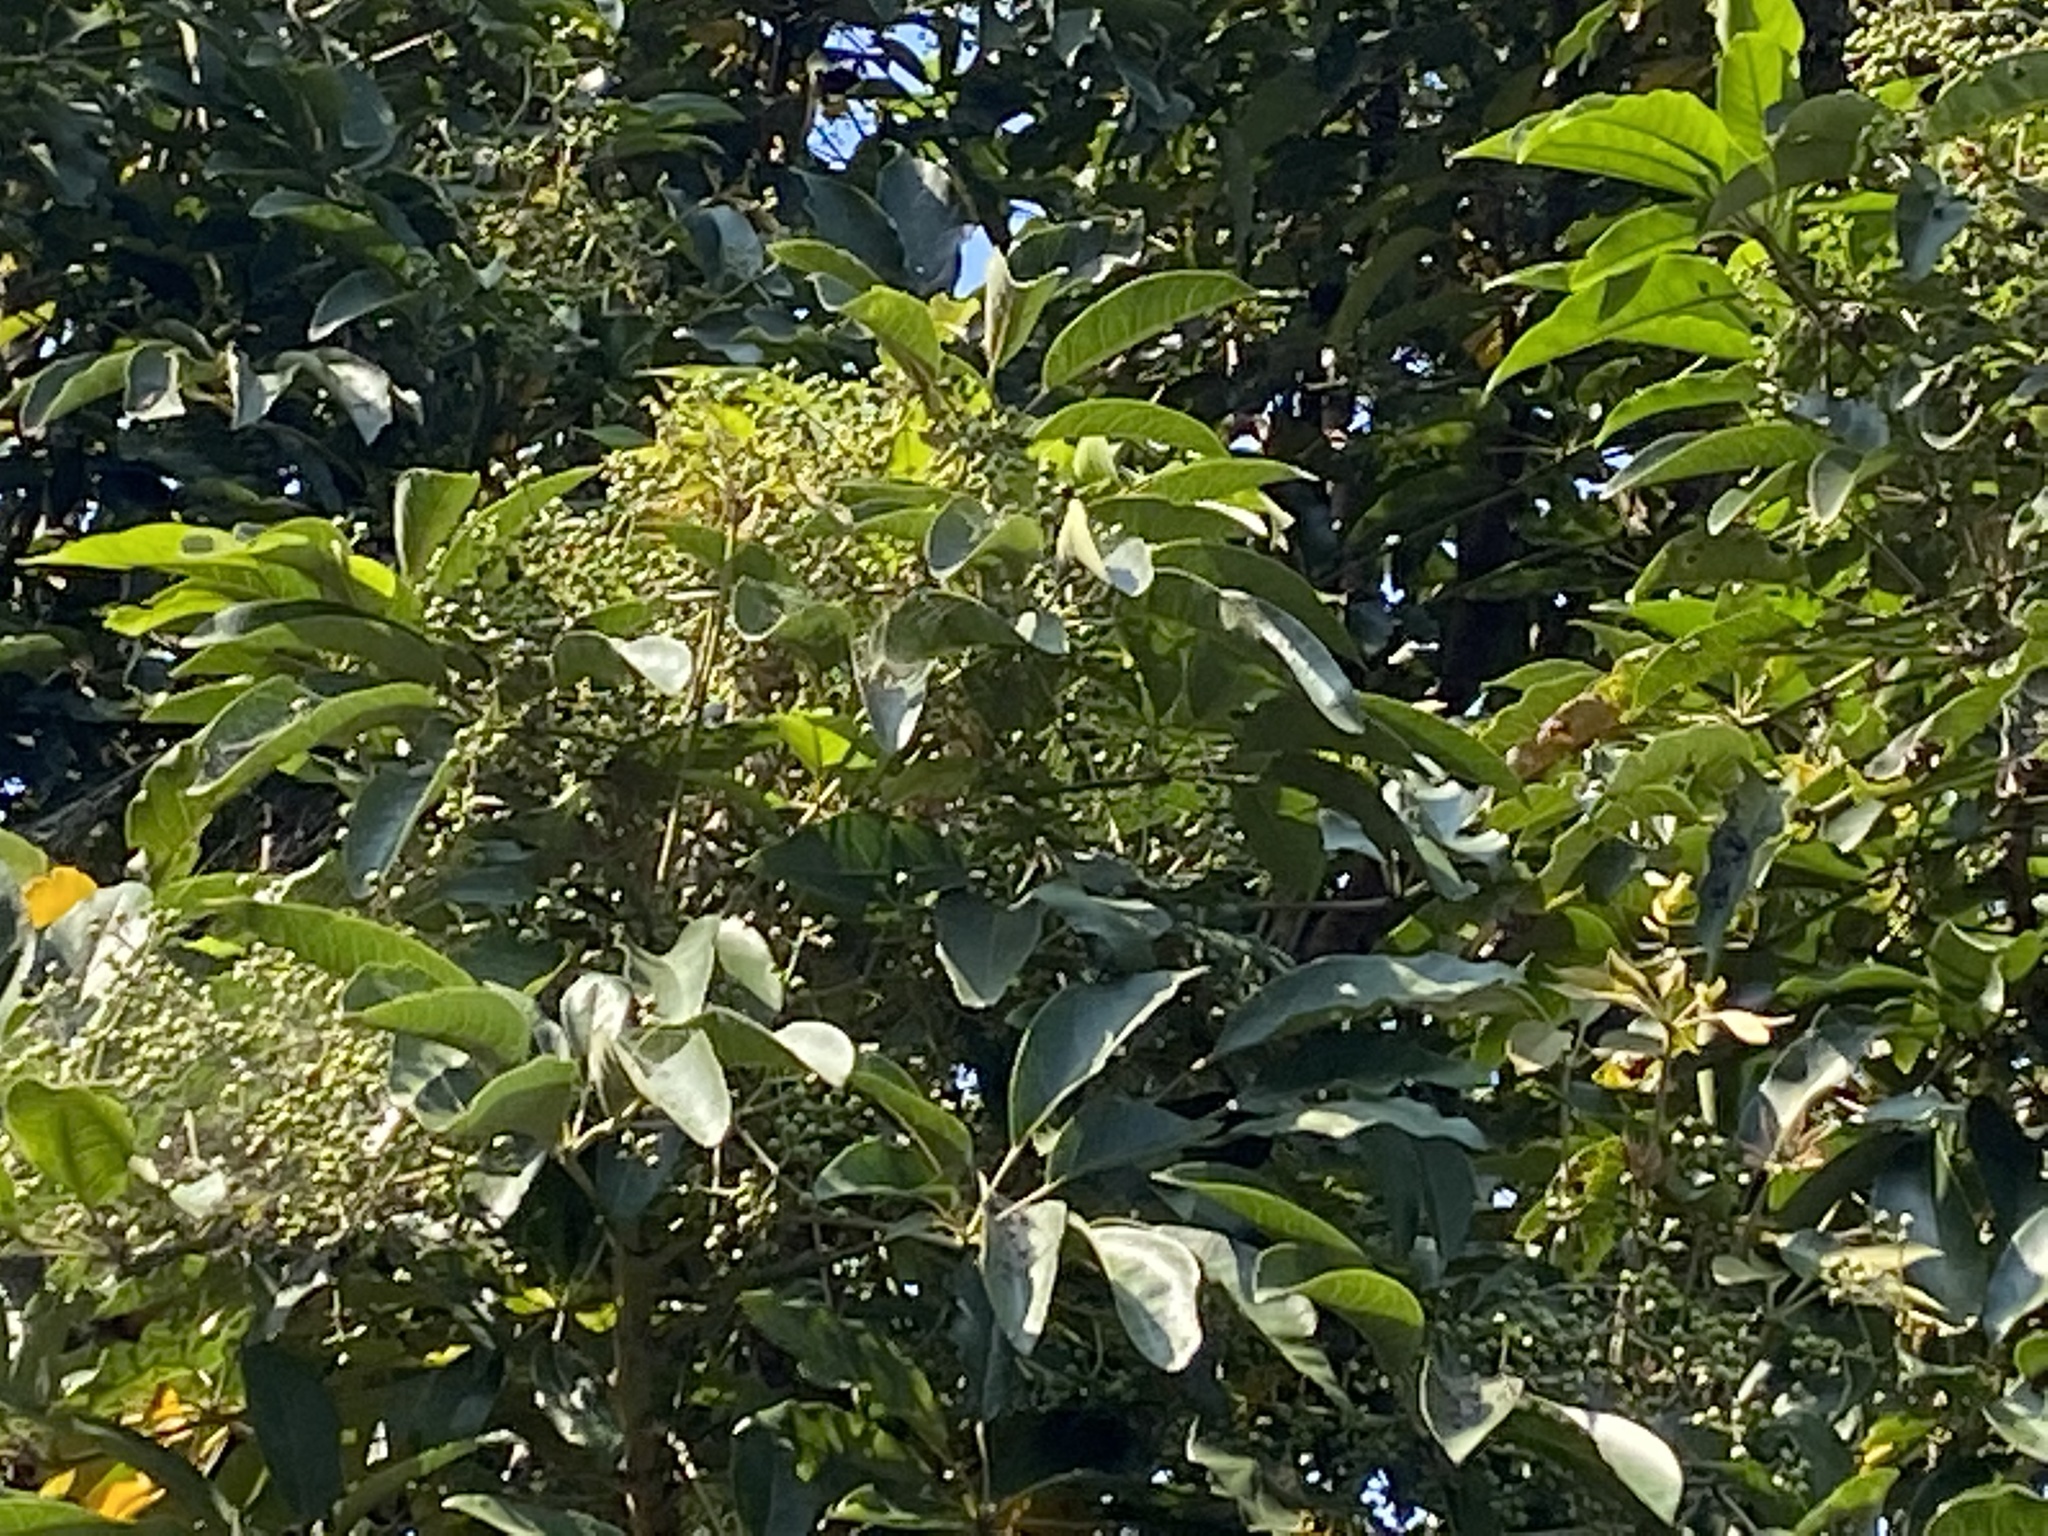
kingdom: Plantae
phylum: Tracheophyta
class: Magnoliopsida
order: Apiales
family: Araliaceae
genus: Heptapleurum
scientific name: Heptapleurum heptaphyllum
